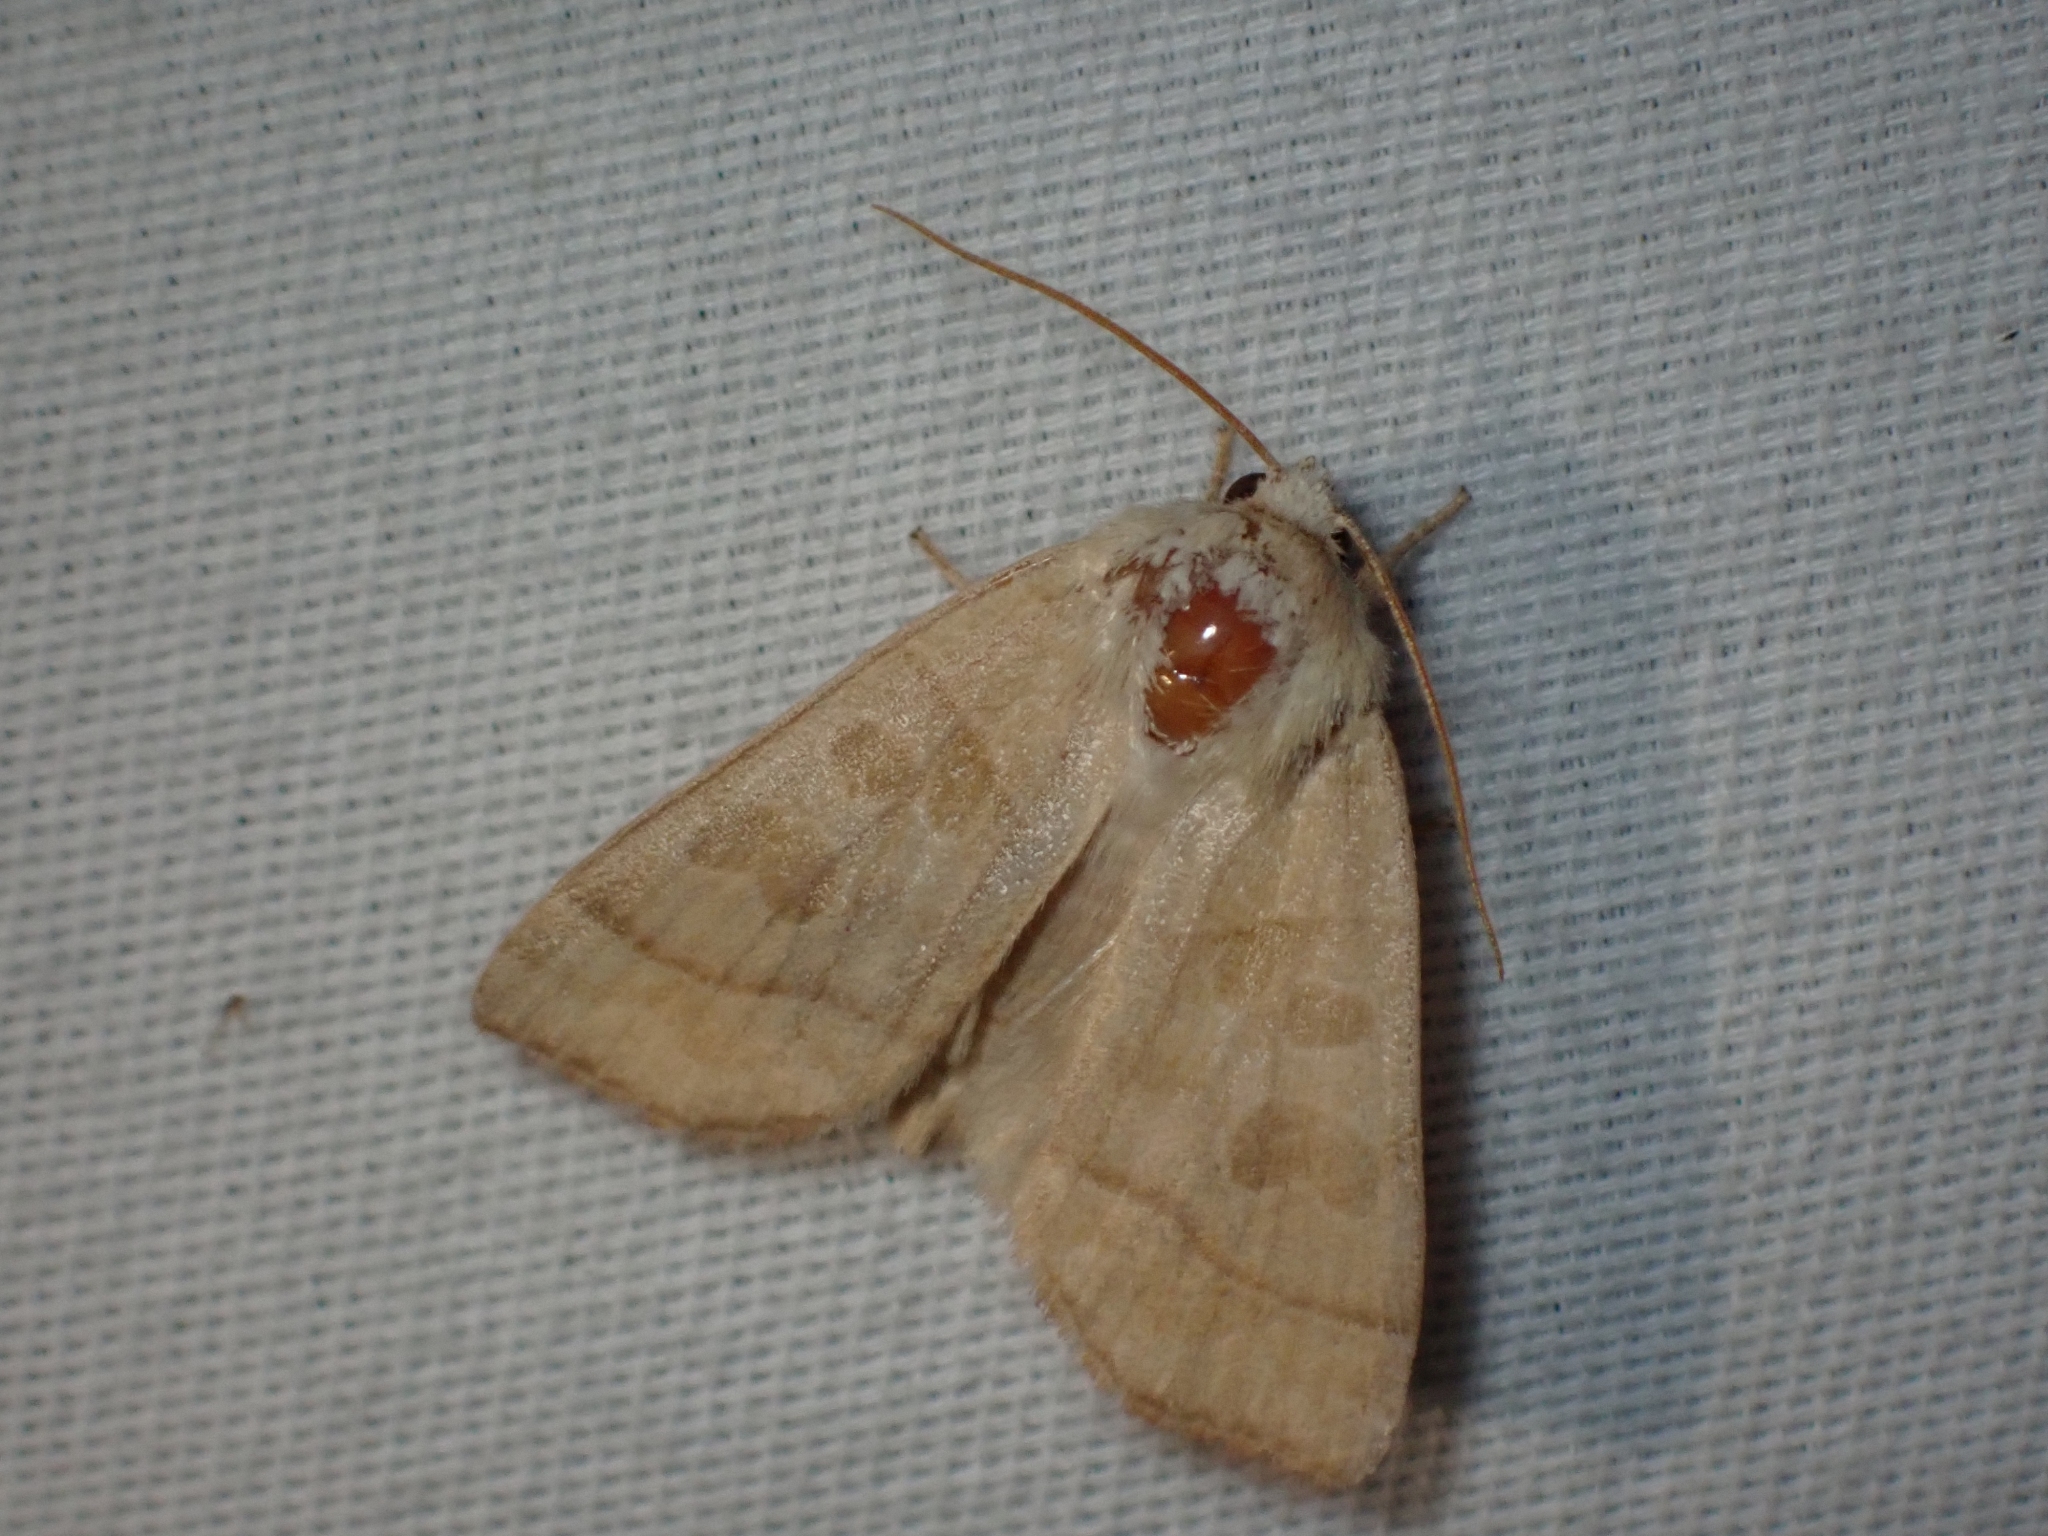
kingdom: Animalia
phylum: Arthropoda
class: Insecta
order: Lepidoptera
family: Noctuidae
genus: Ipimorpha
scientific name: Ipimorpha pleonectusa
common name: Even-lined sallow
